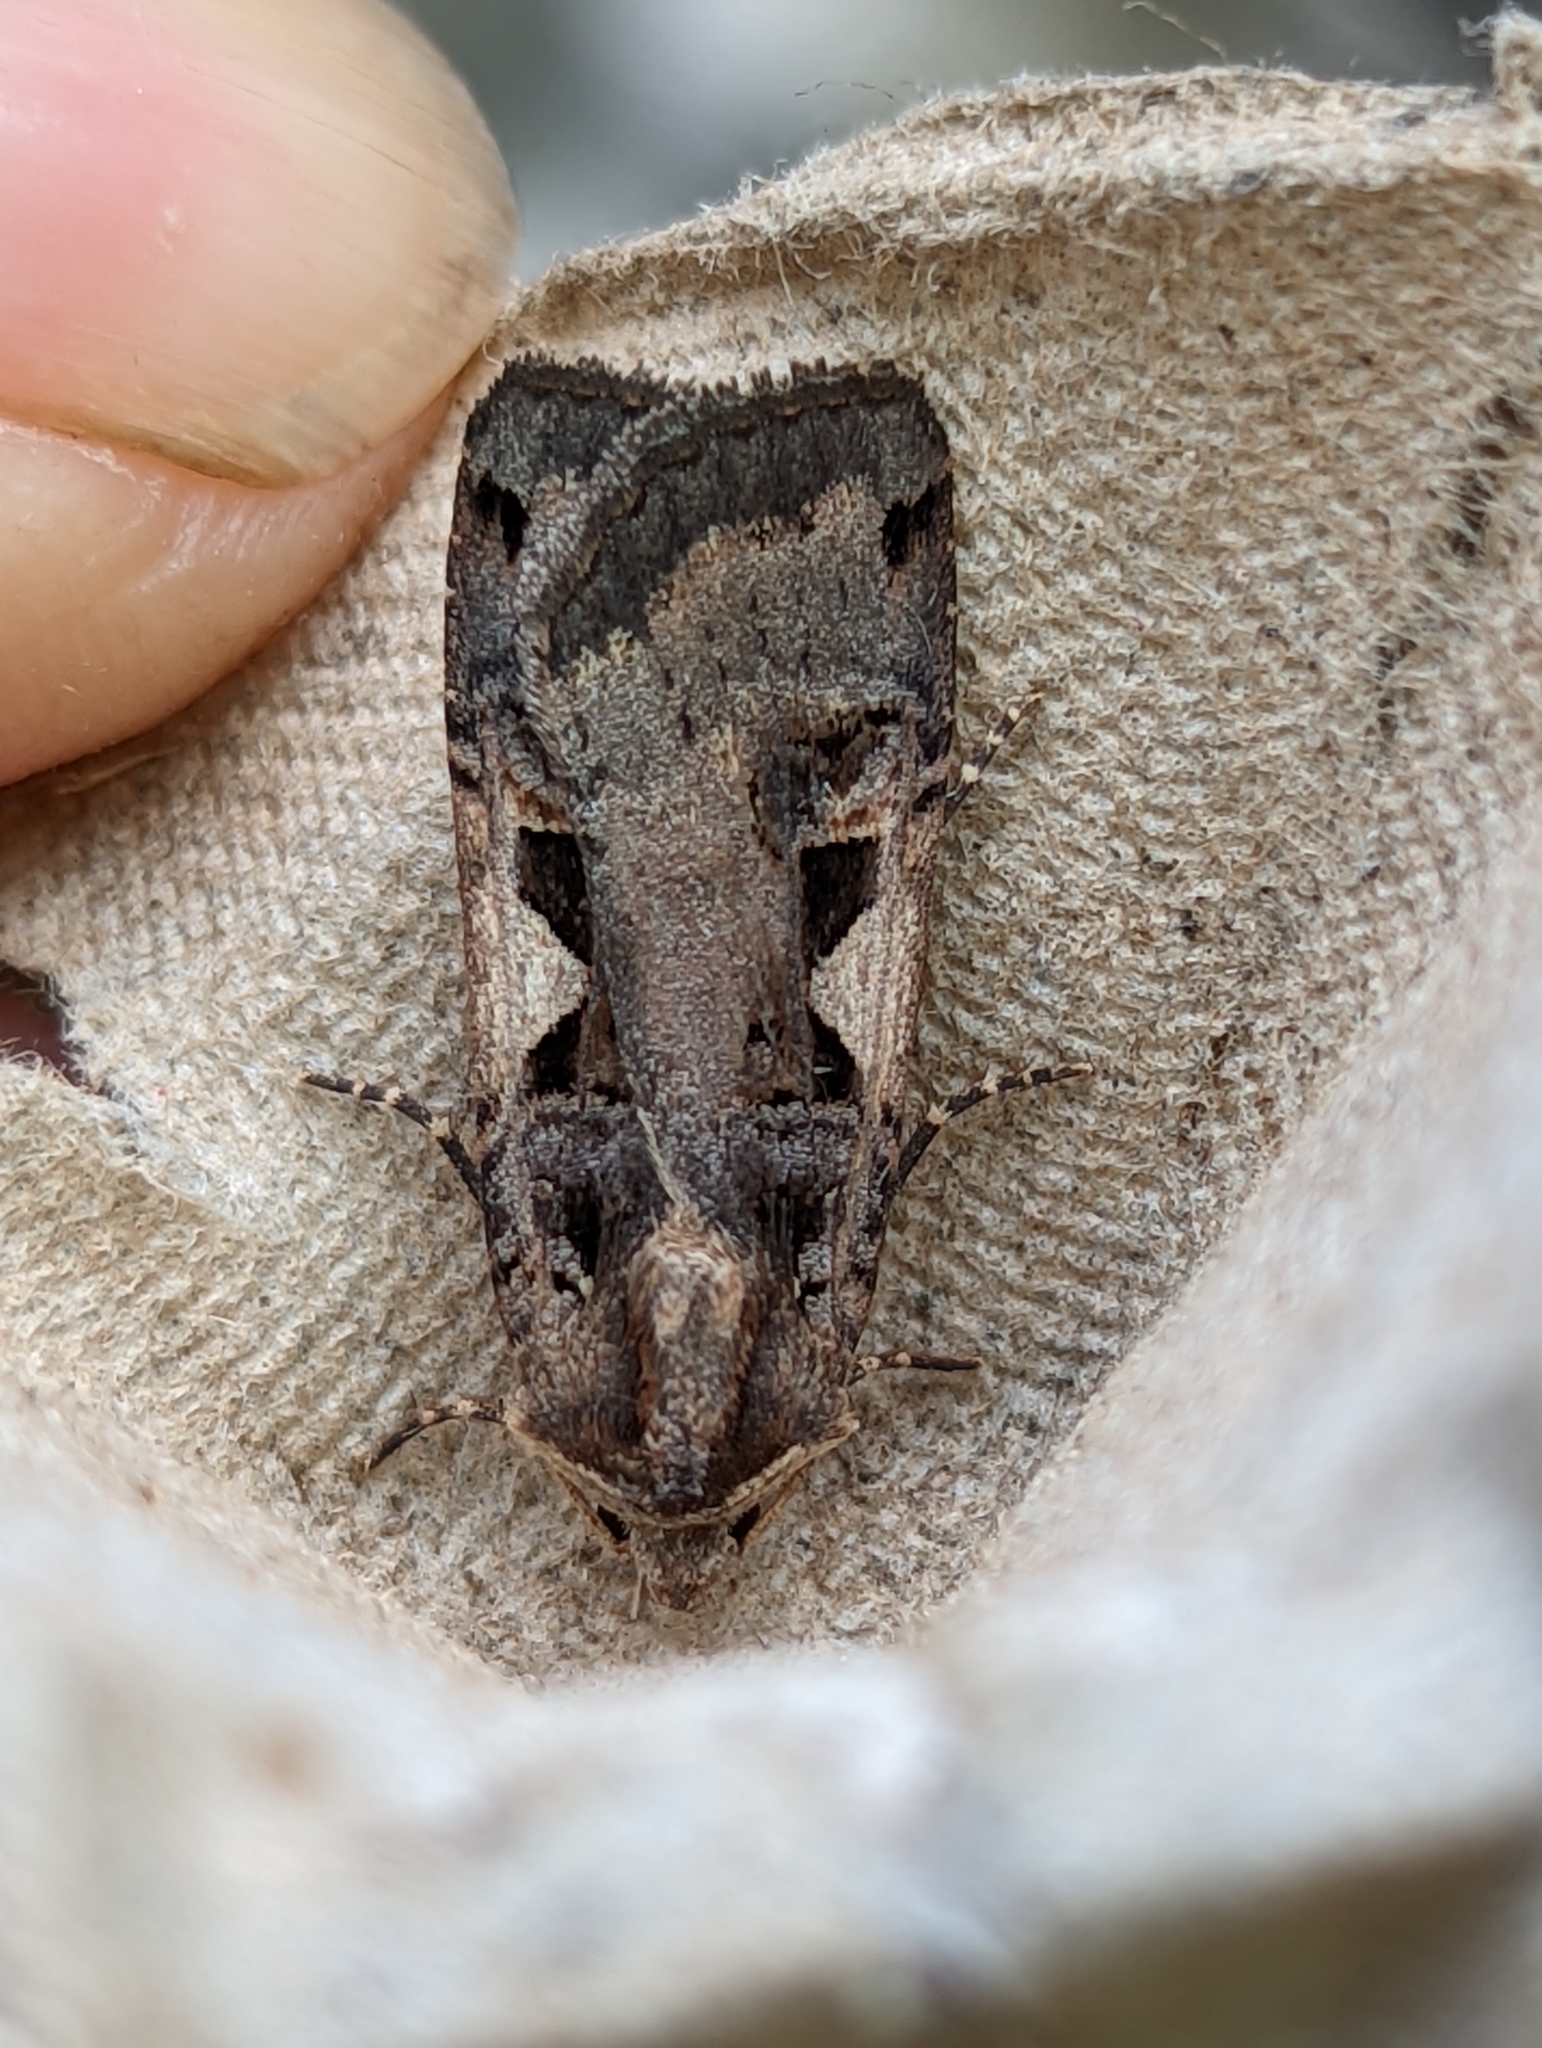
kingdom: Animalia
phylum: Arthropoda
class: Insecta
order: Lepidoptera
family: Noctuidae
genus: Xestia
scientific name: Xestia c-nigrum
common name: Setaceous hebrew character
